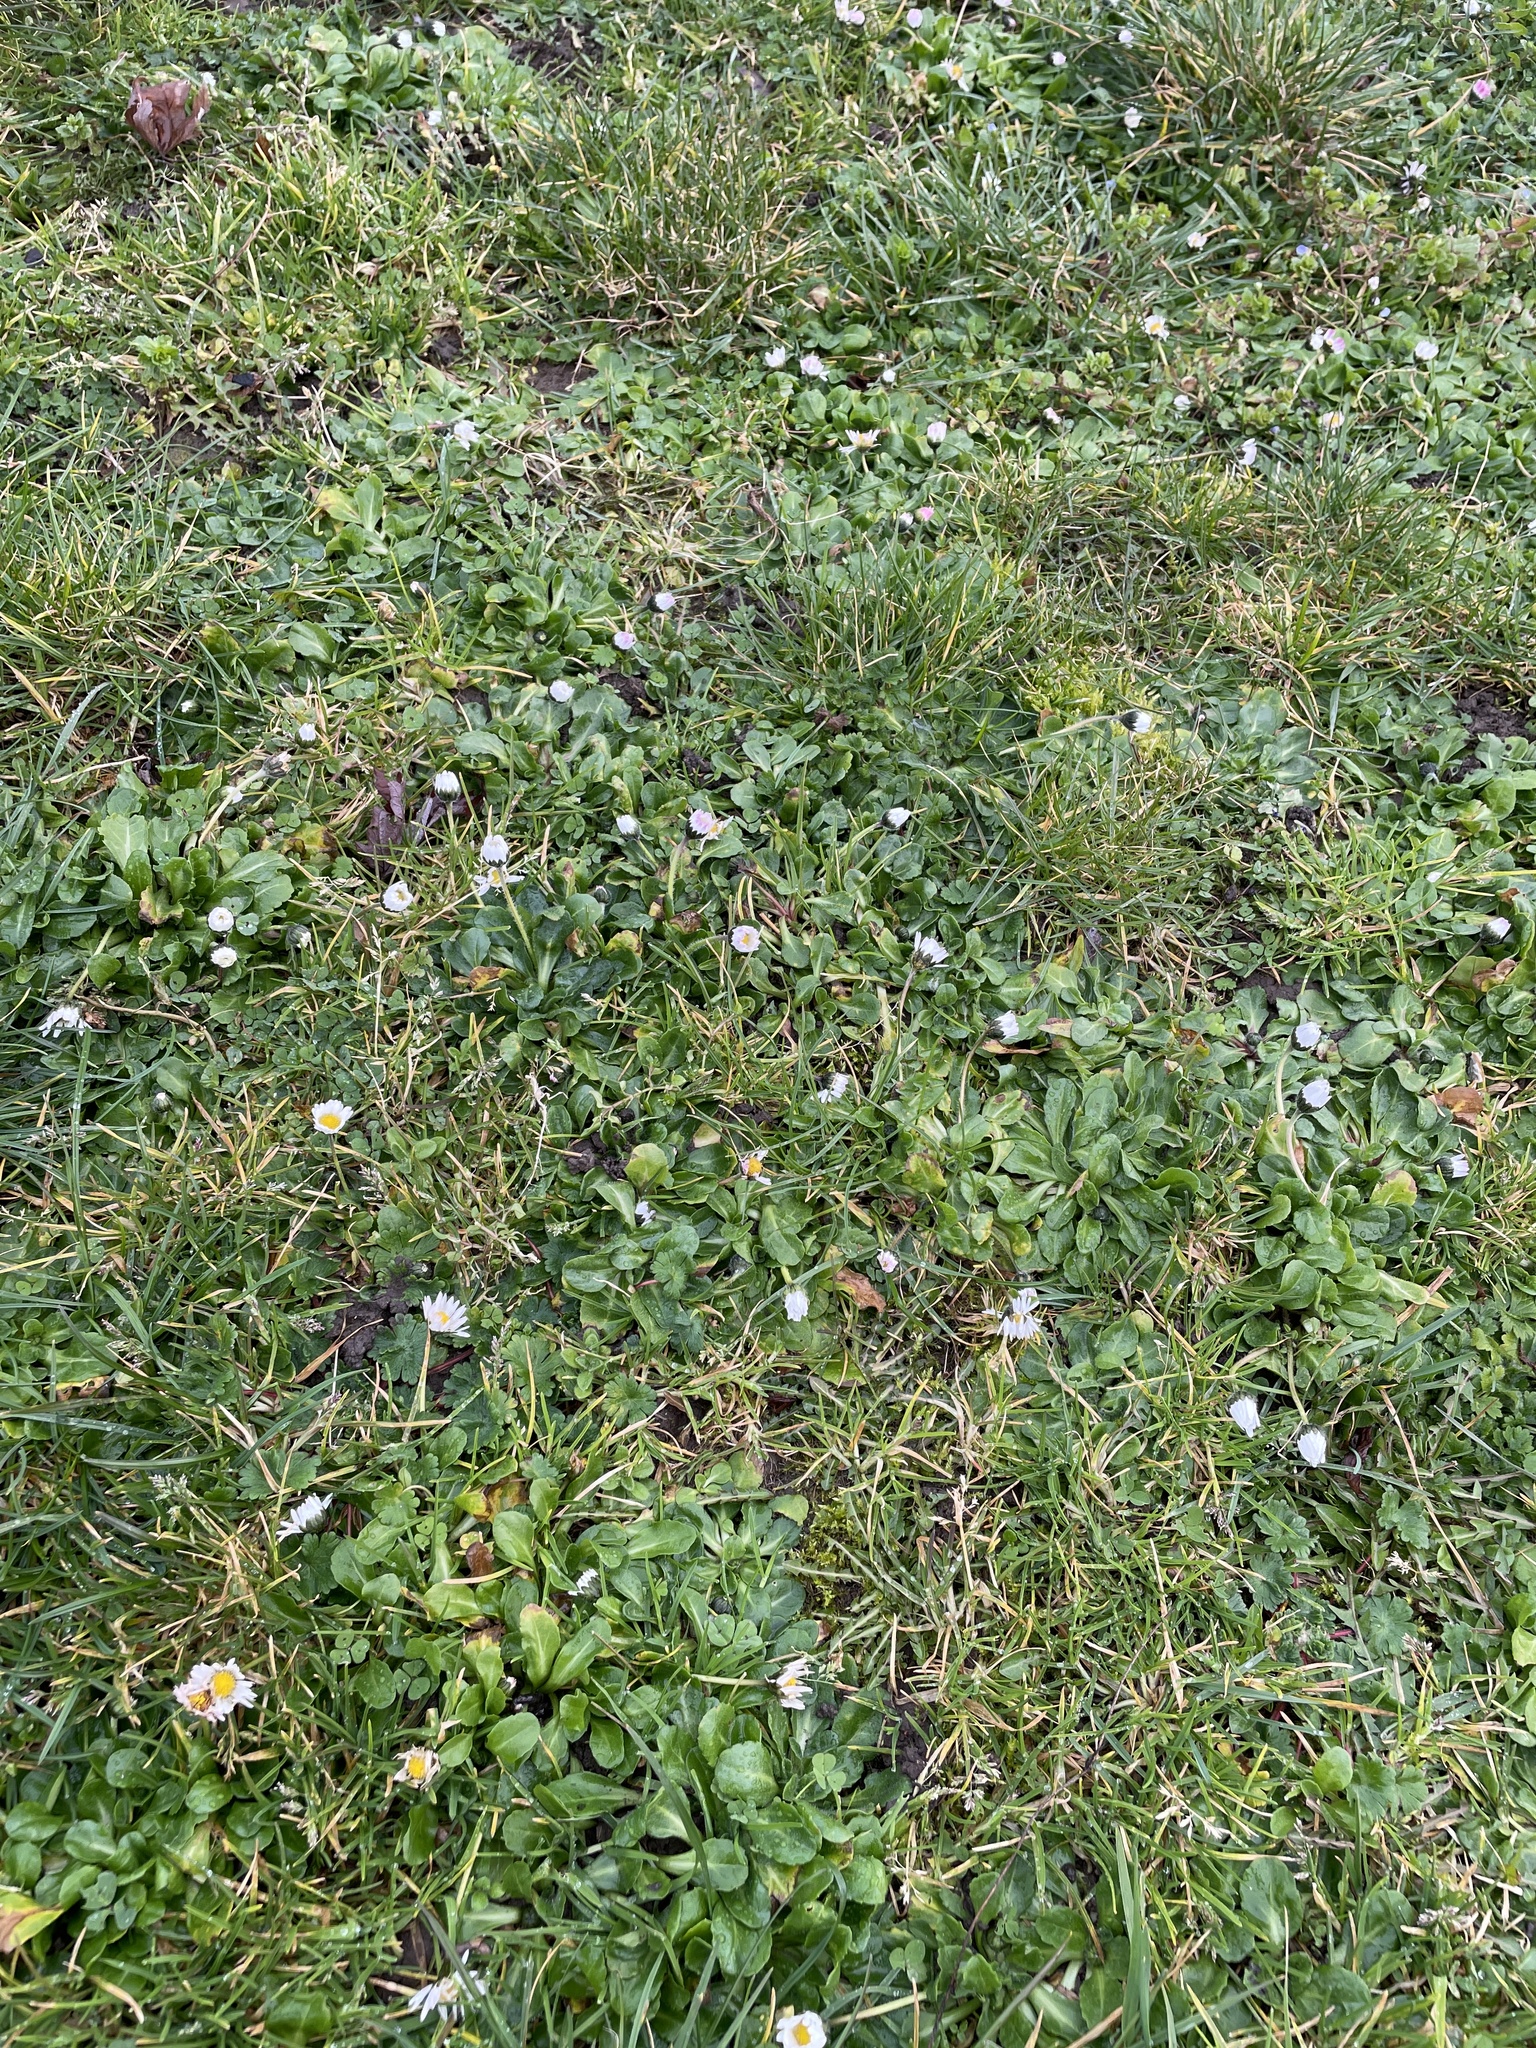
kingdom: Plantae
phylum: Tracheophyta
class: Magnoliopsida
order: Asterales
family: Asteraceae
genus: Bellis
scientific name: Bellis perennis
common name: Lawndaisy
